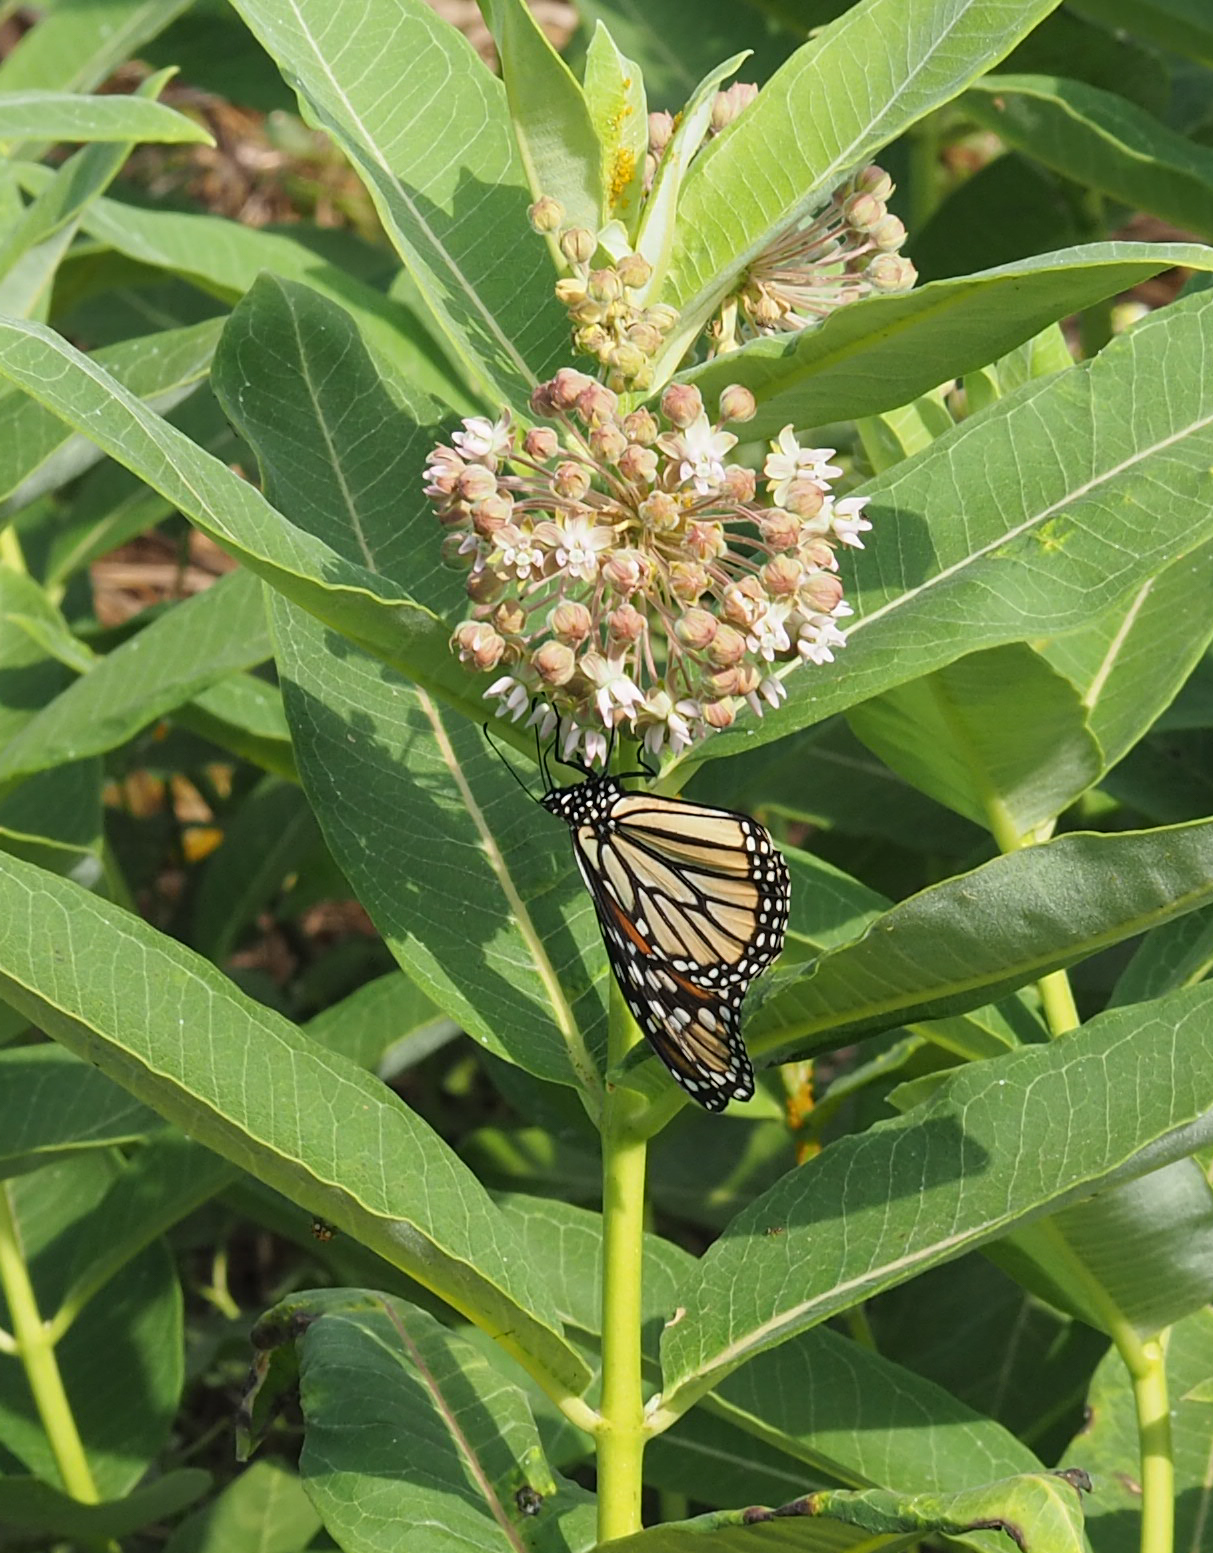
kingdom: Animalia
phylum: Arthropoda
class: Insecta
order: Lepidoptera
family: Nymphalidae
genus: Danaus
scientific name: Danaus plexippus
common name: Monarch
